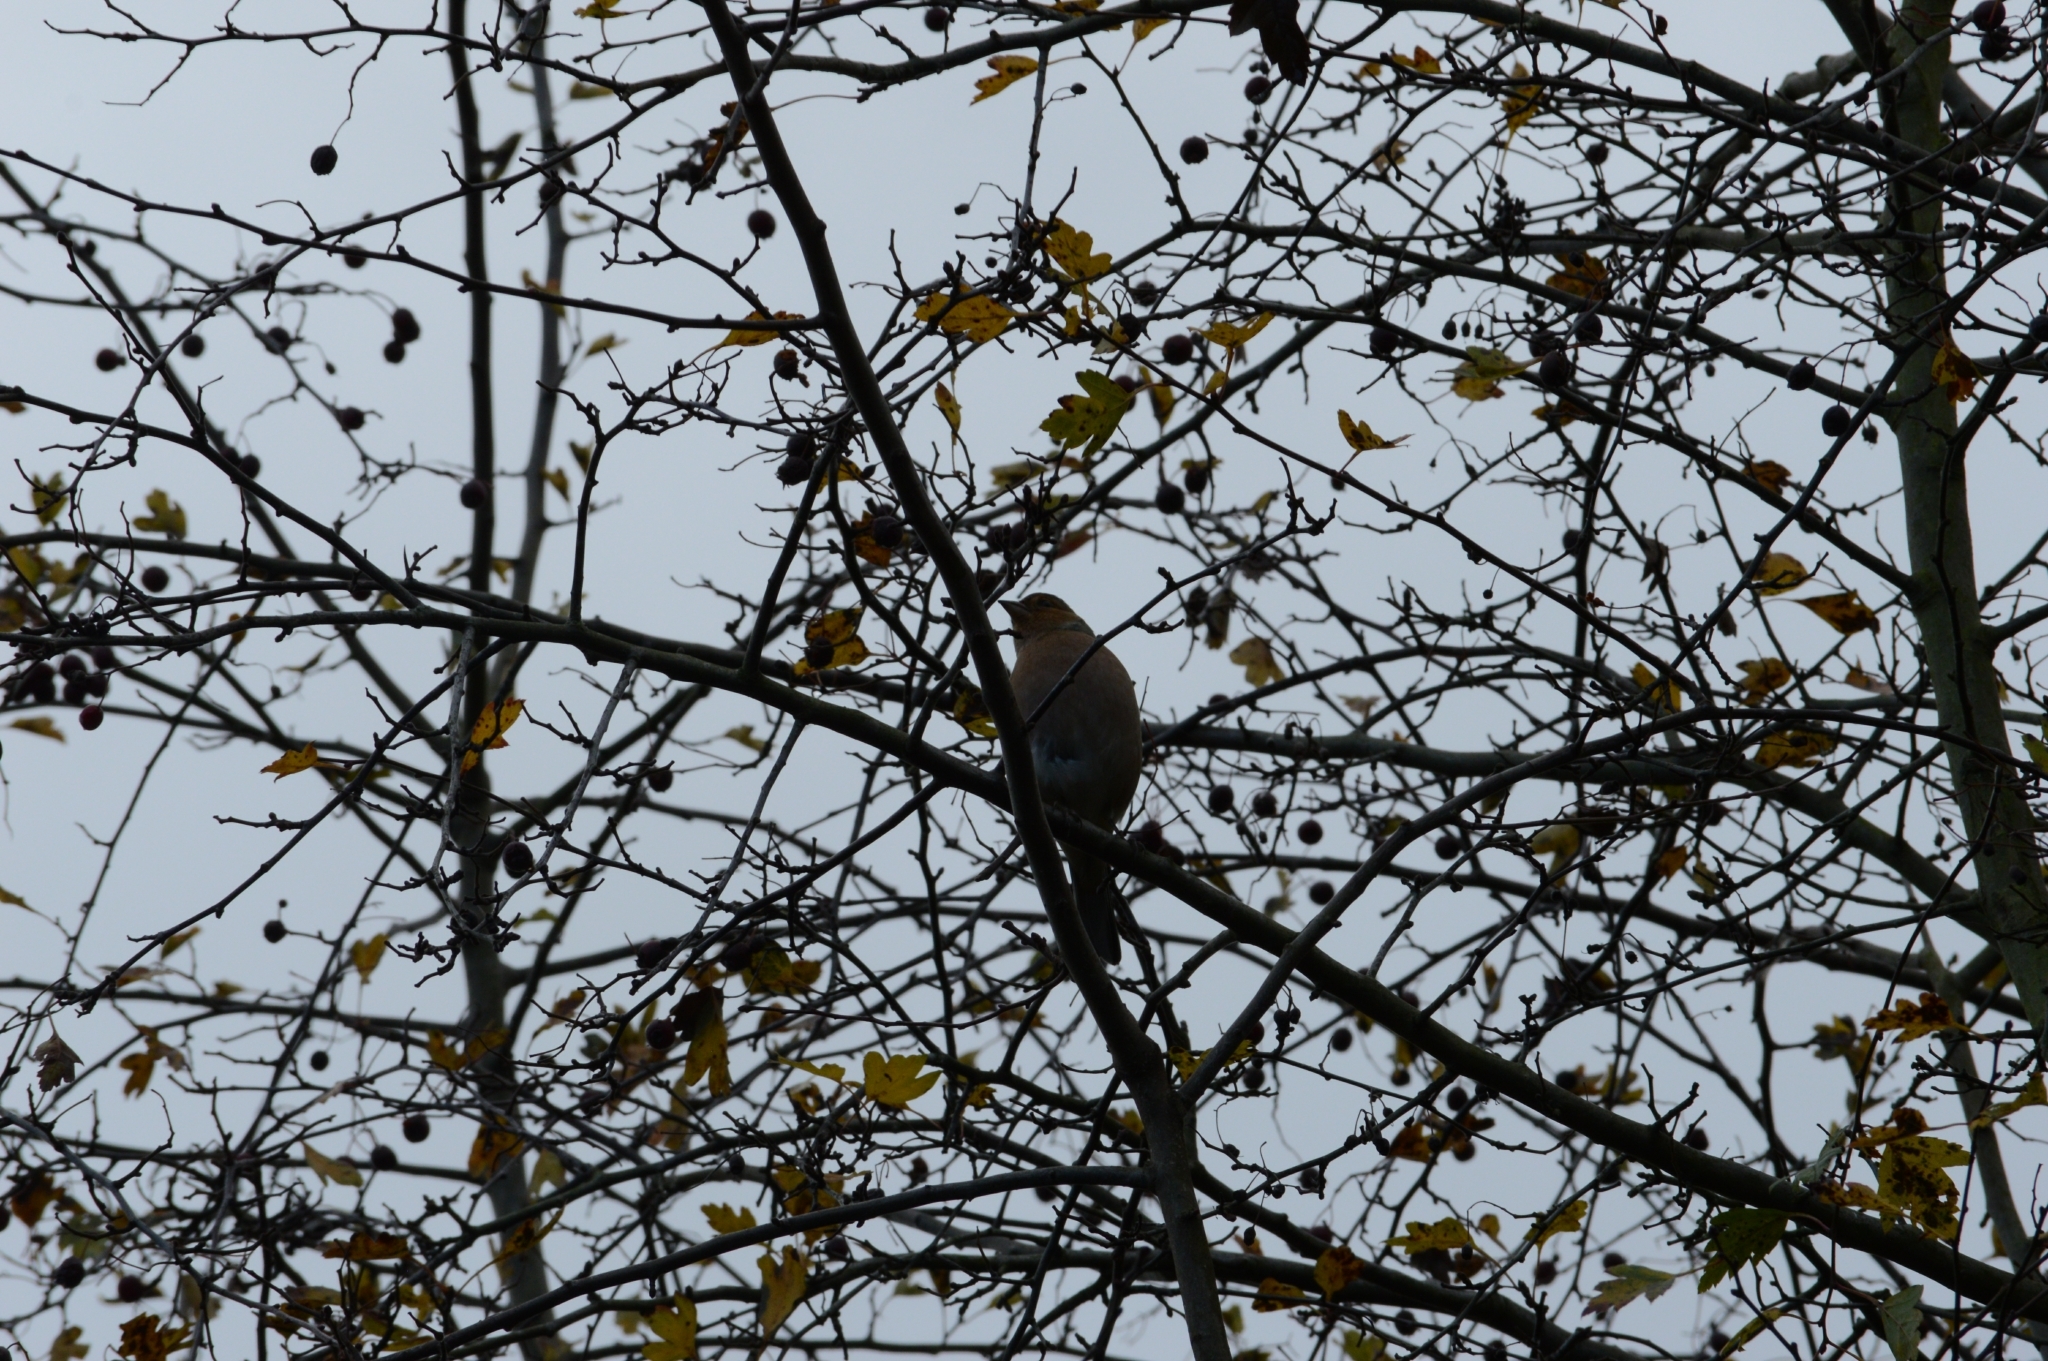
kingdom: Animalia
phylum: Chordata
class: Aves
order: Passeriformes
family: Fringillidae
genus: Fringilla
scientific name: Fringilla coelebs
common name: Common chaffinch
